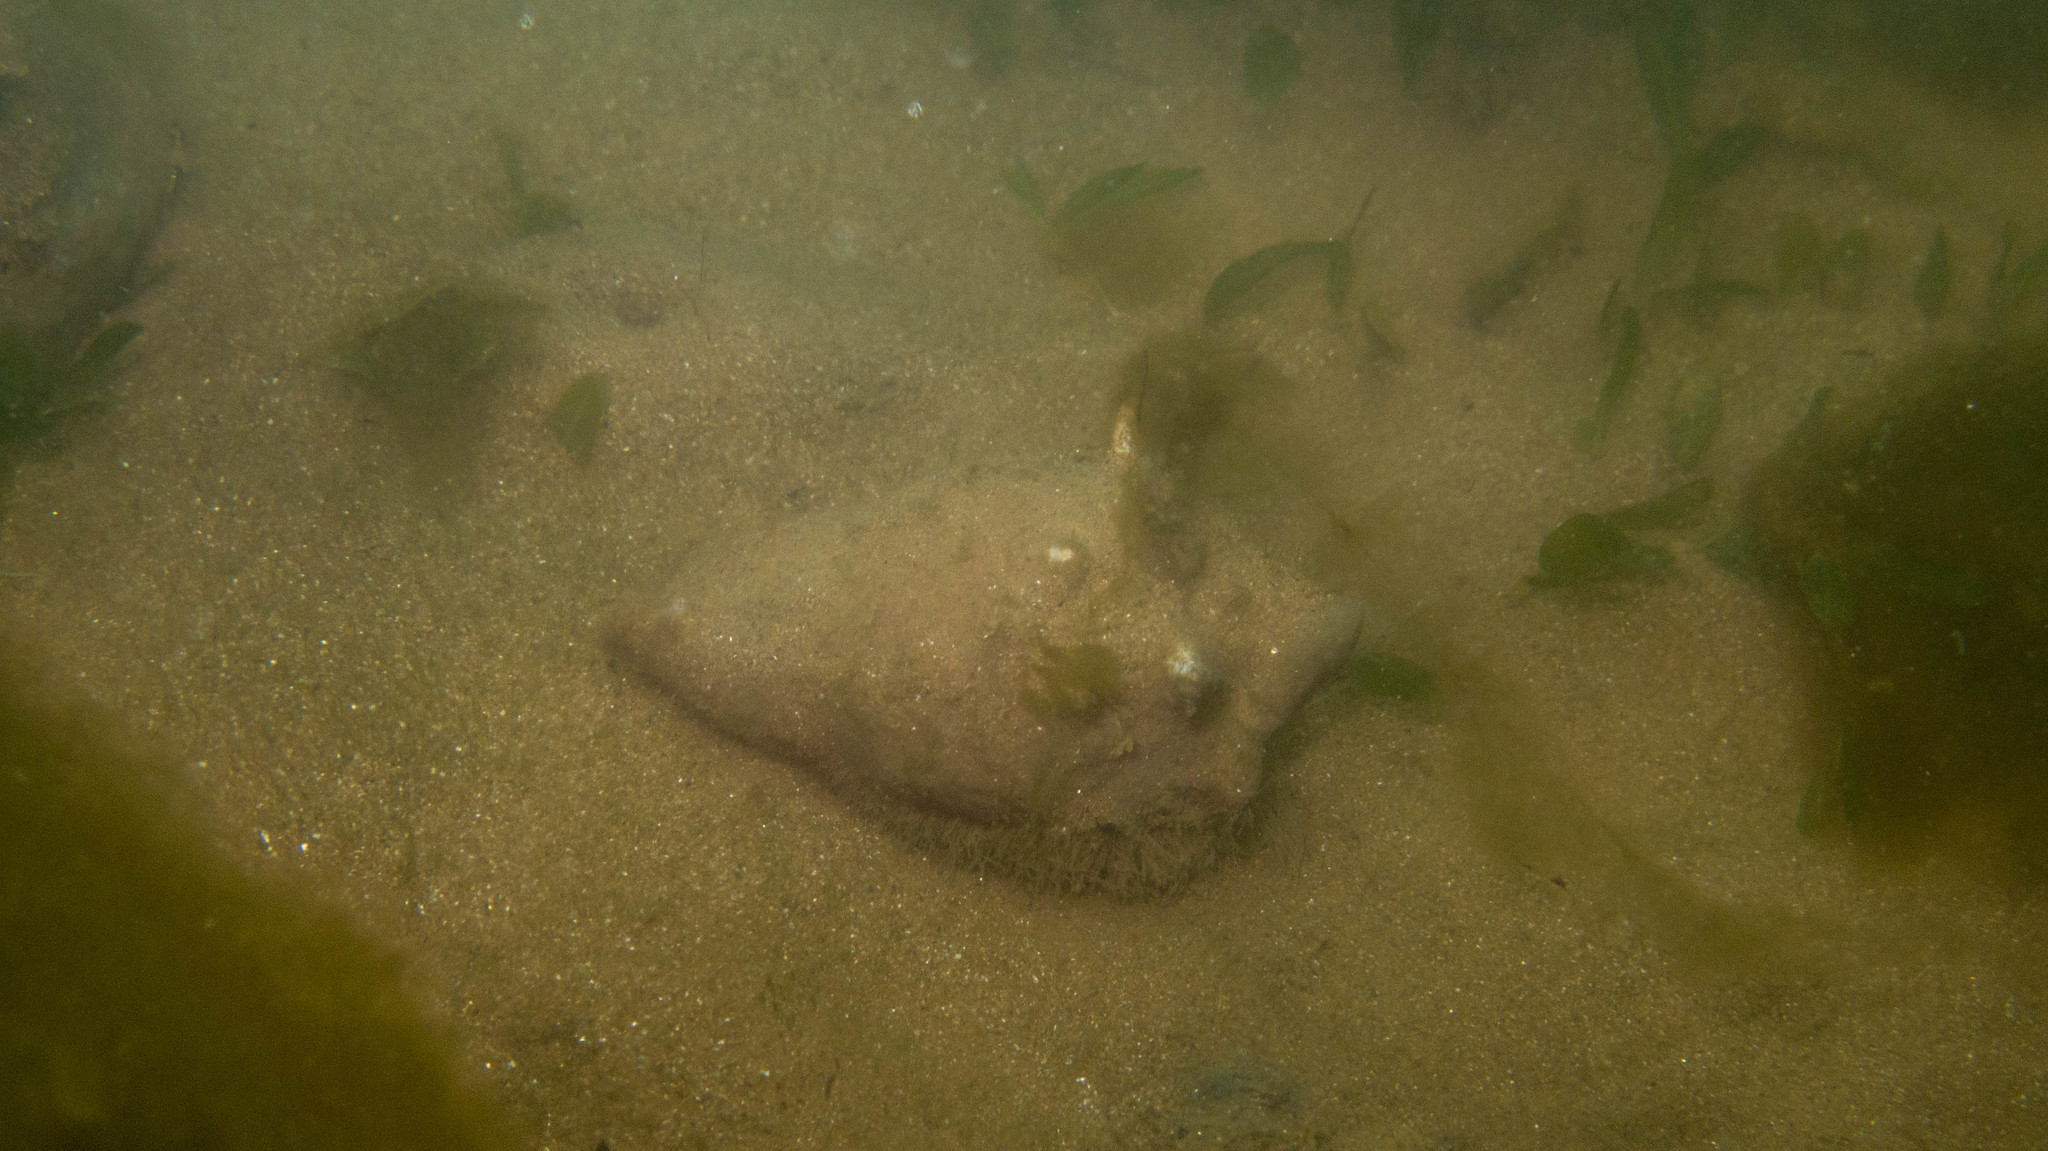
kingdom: Animalia
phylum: Mollusca
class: Gastropoda
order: Littorinimorpha
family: Strombidae
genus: Strombus
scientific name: Strombus pugilis
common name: West indian fighting conch
